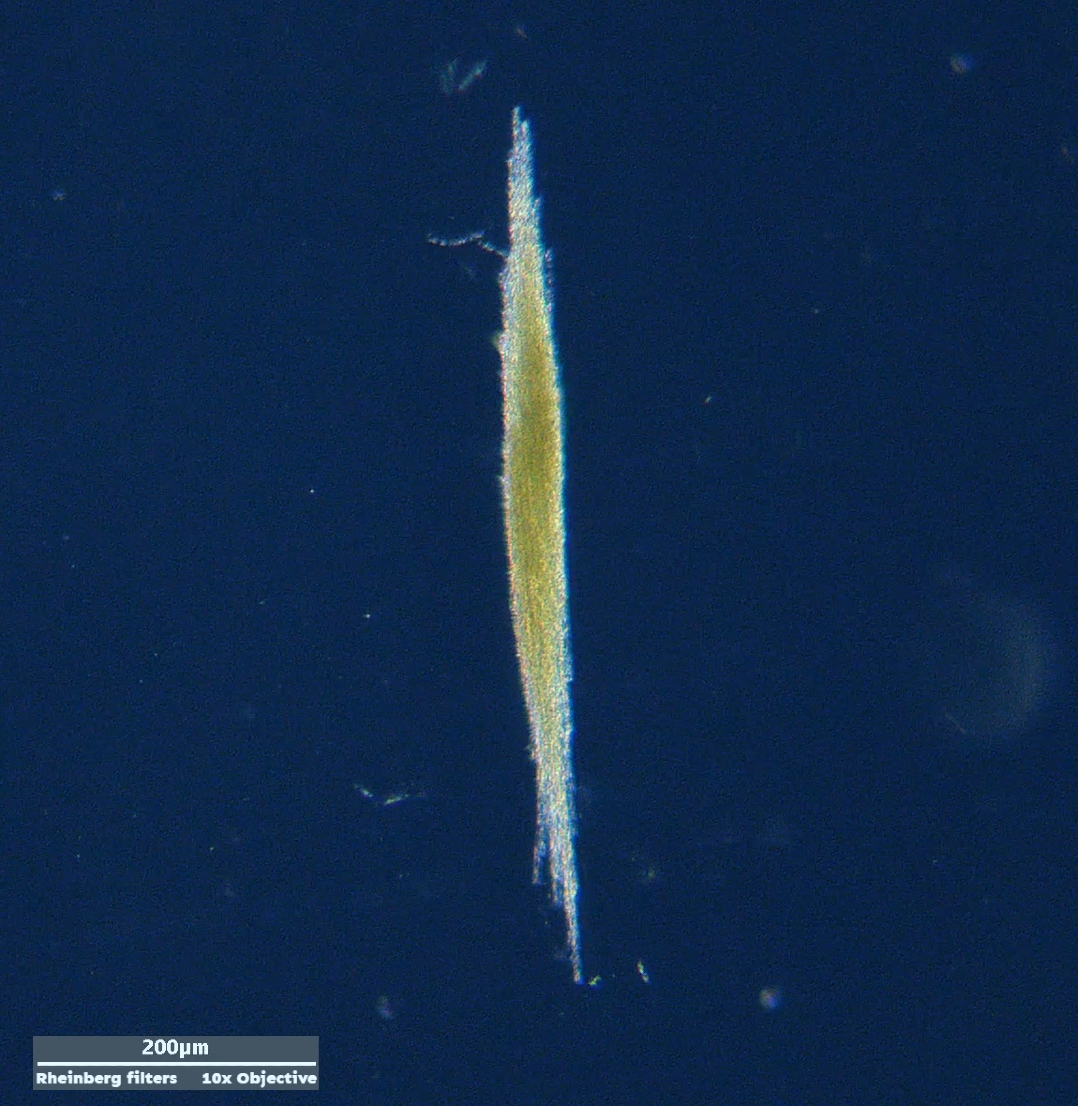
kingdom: Bacteria
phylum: Cyanobacteria
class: Cyanobacteriia
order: Cyanobacteriales
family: Aphanizomenonaceae
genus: Aphanizomenon
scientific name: Aphanizomenon flosaquae
